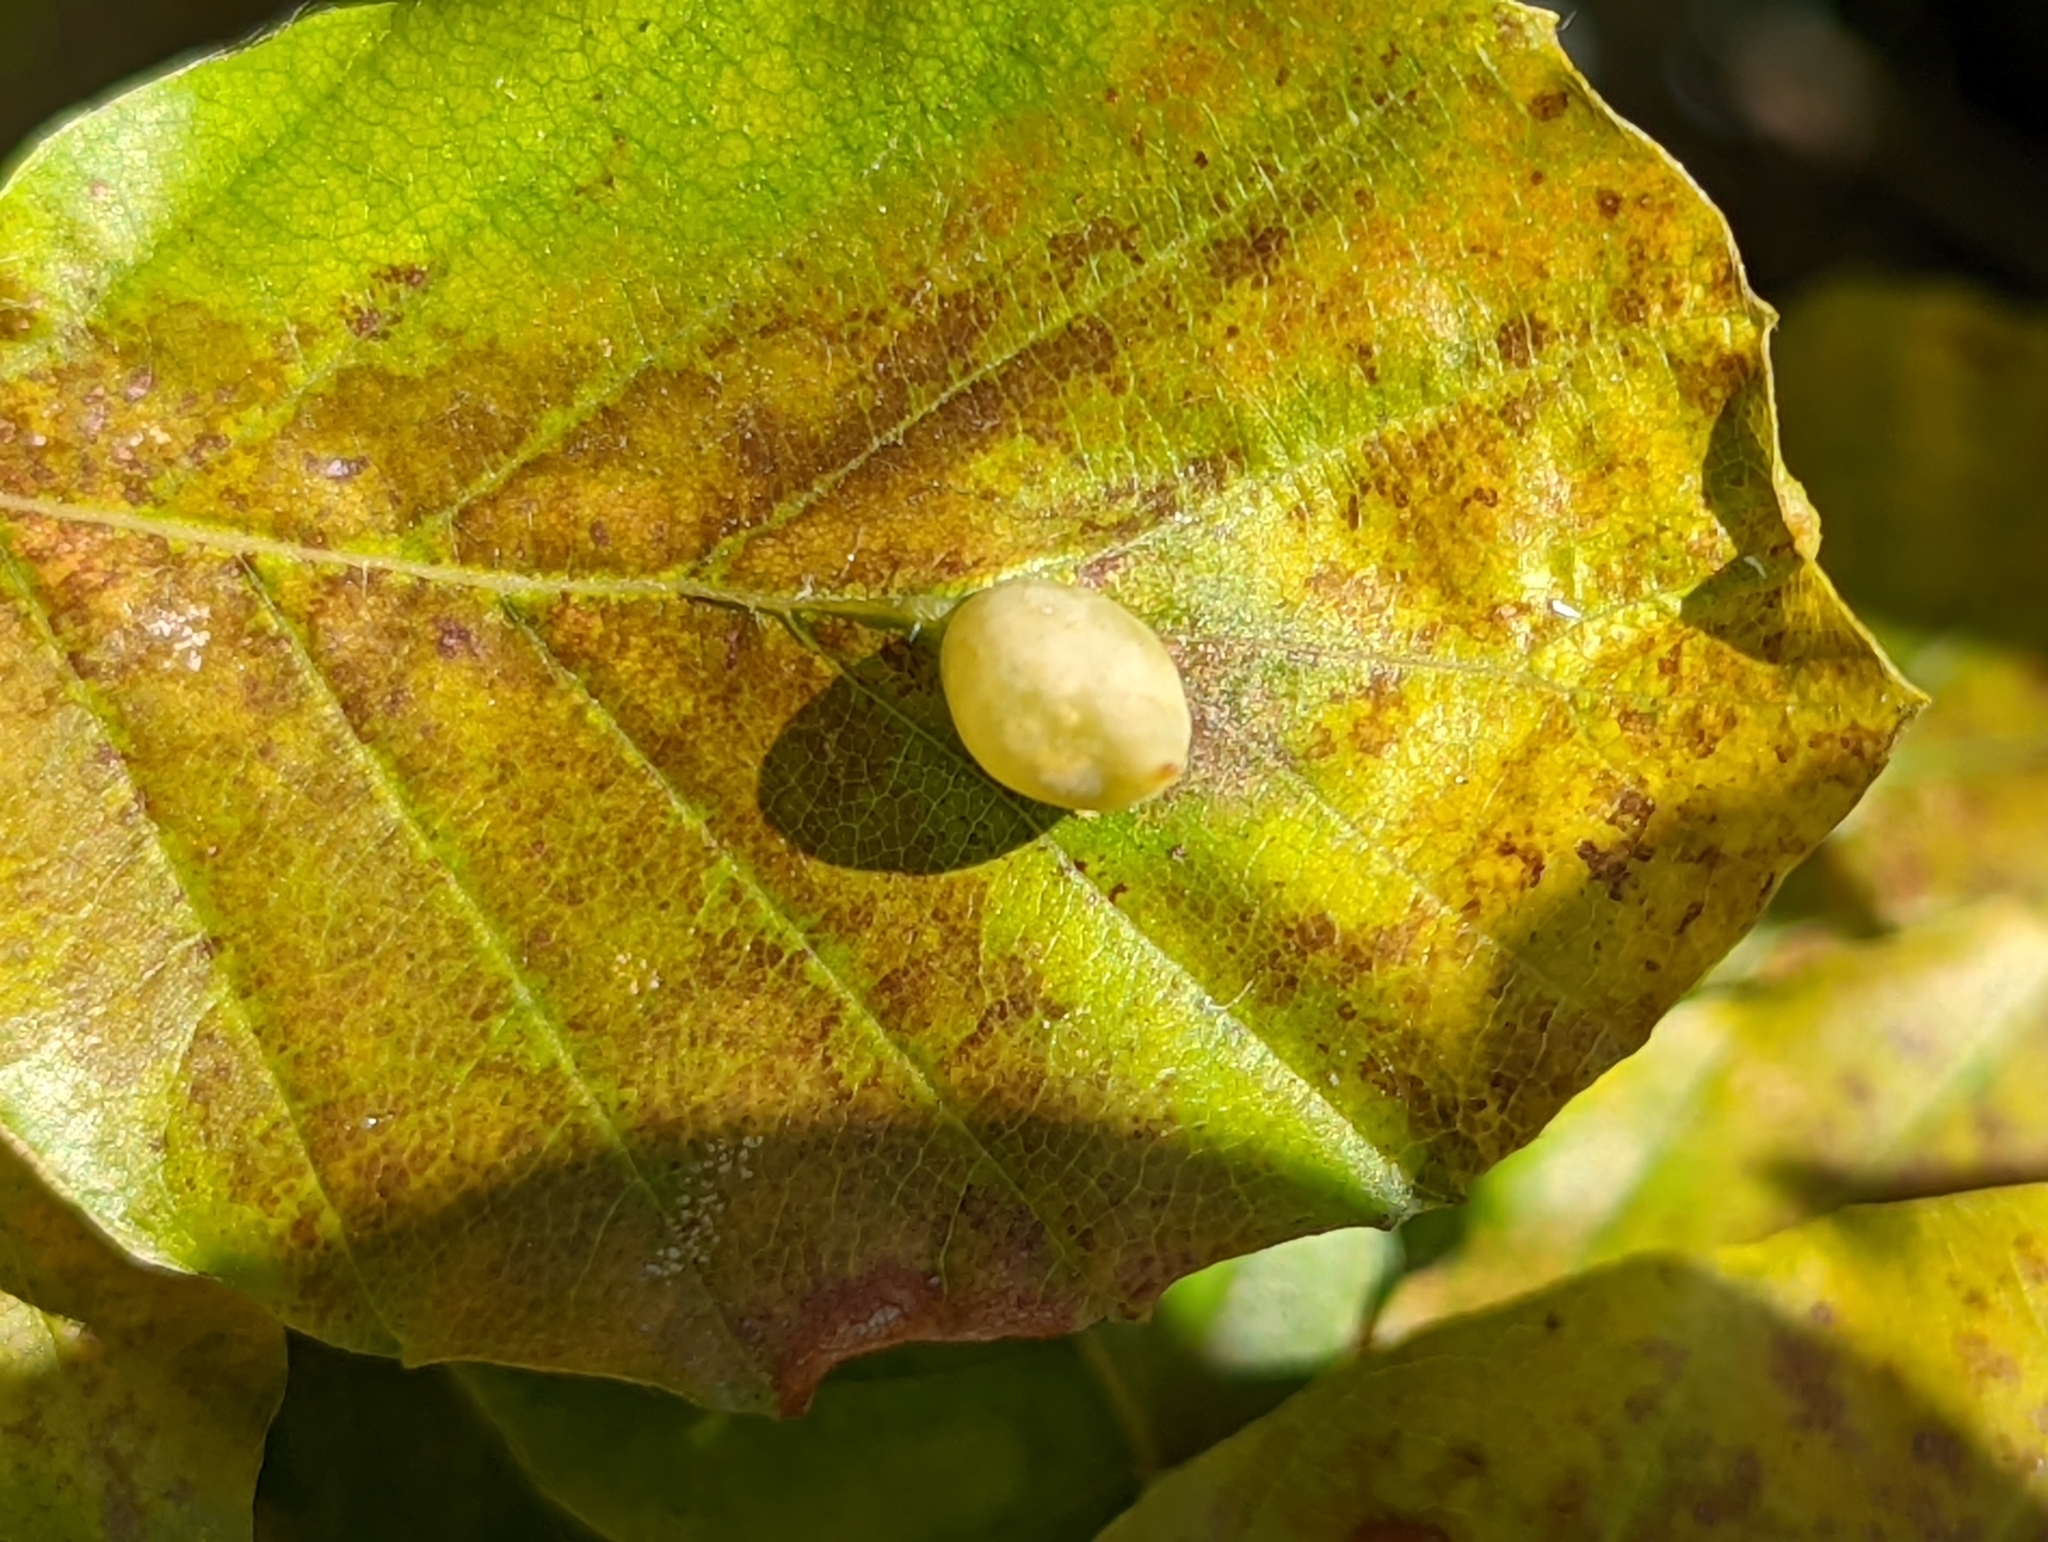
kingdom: Animalia
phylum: Arthropoda
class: Insecta
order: Diptera
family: Cecidomyiidae
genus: Mikiola
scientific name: Mikiola fagi
